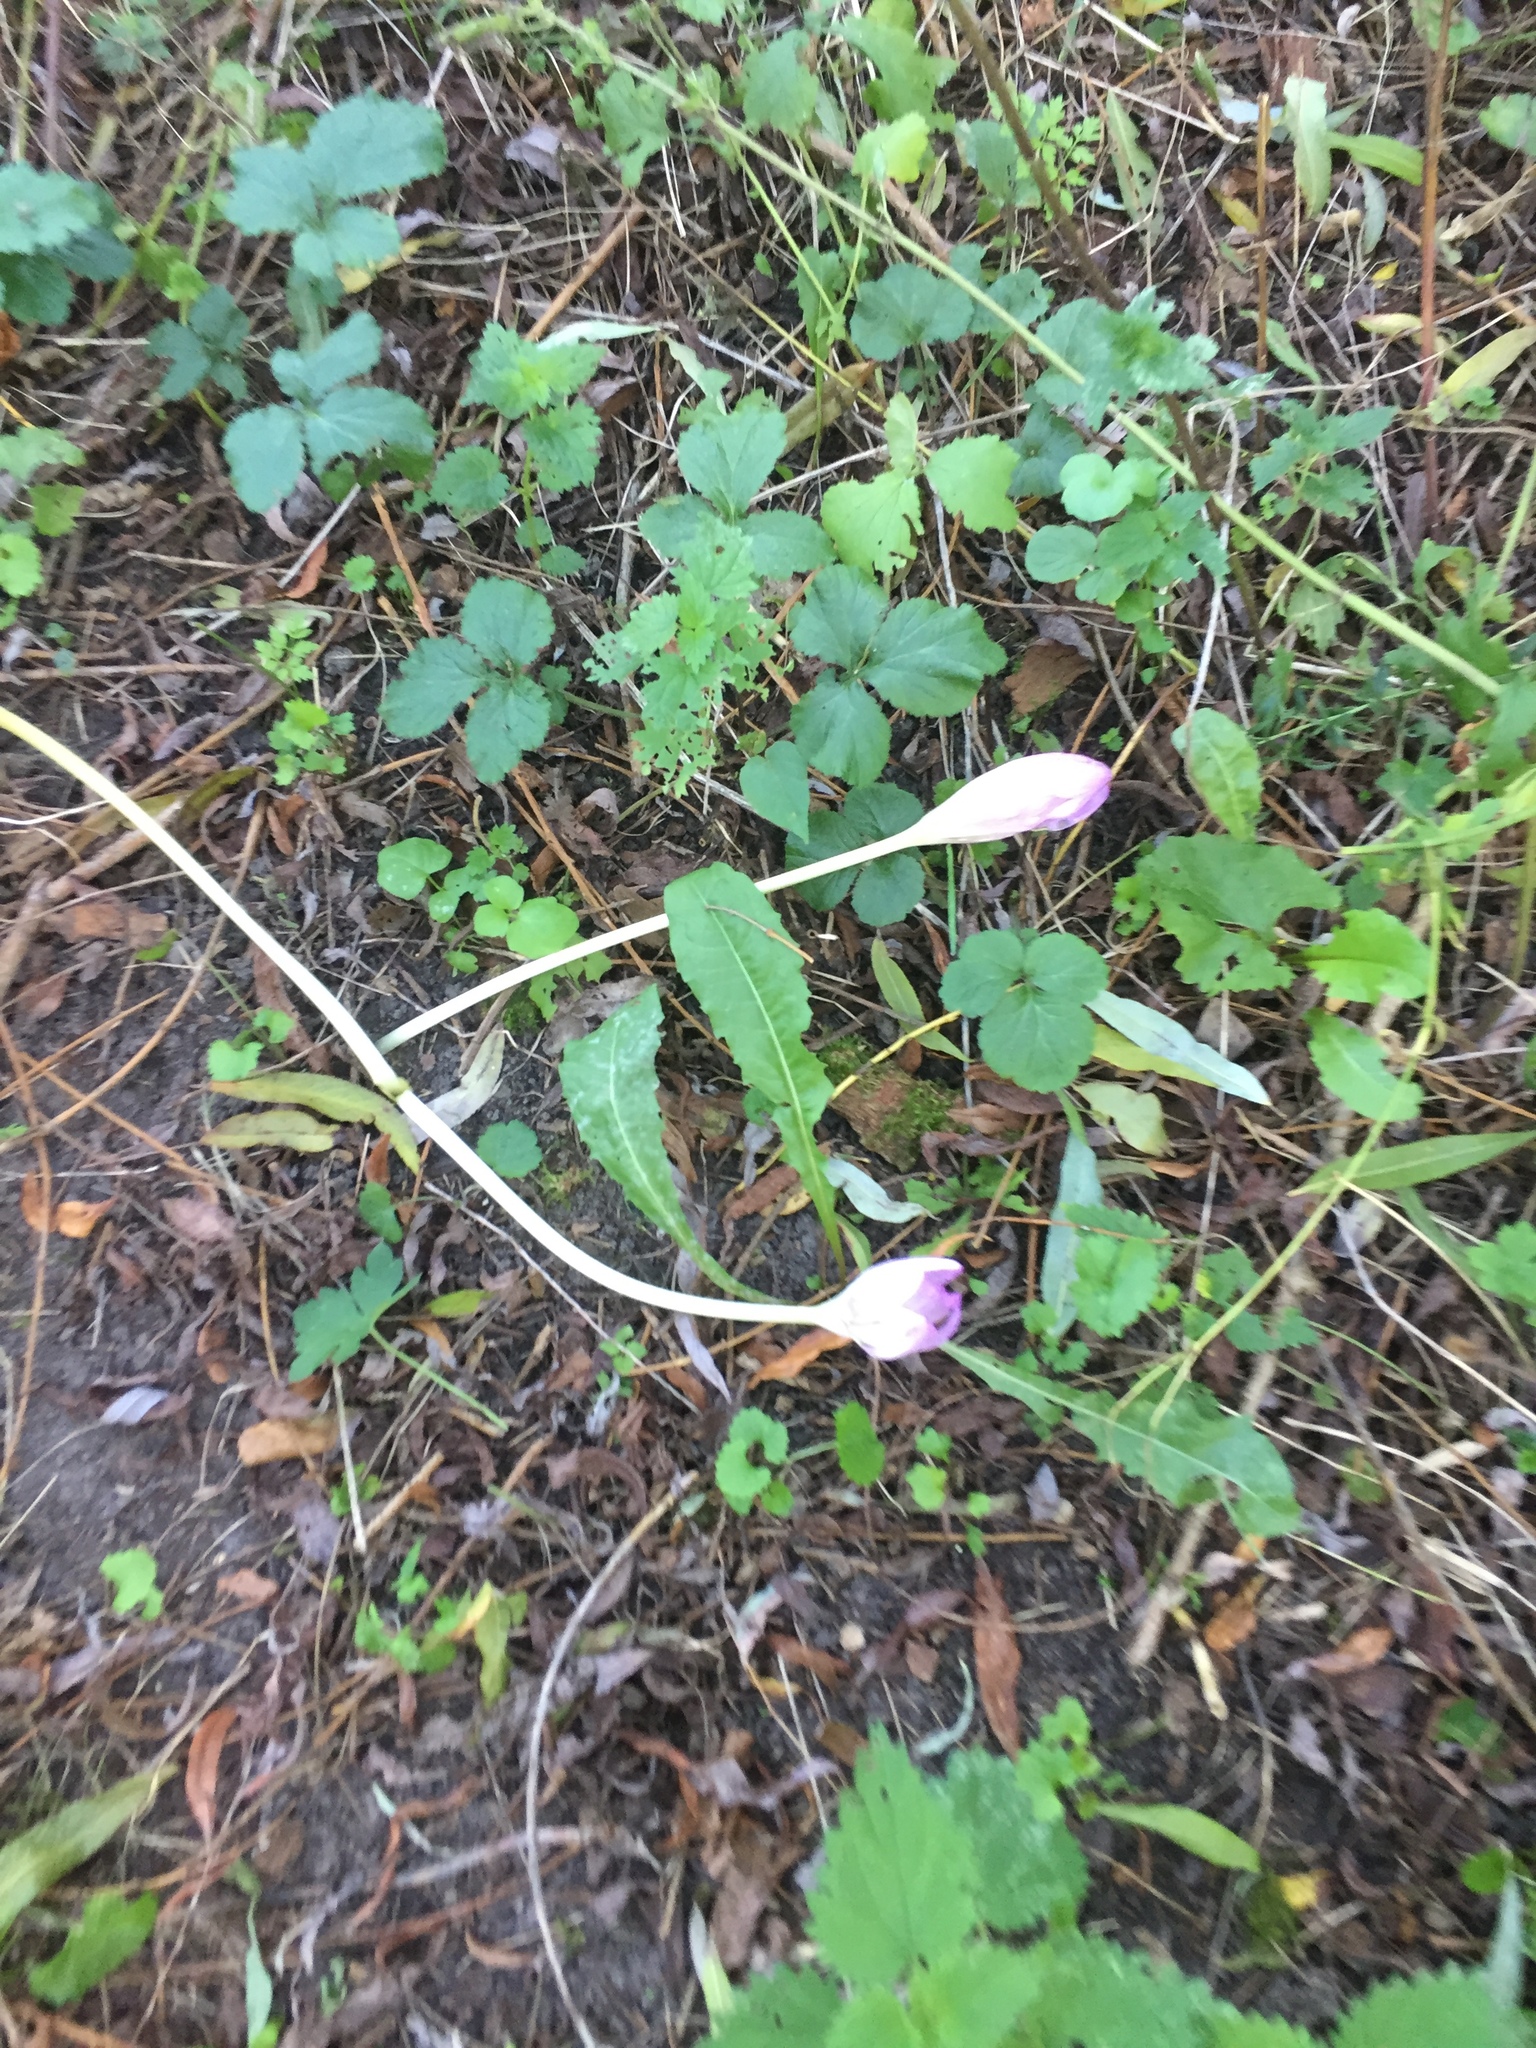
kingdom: Plantae
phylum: Tracheophyta
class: Liliopsida
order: Liliales
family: Colchicaceae
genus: Colchicum
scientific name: Colchicum autumnale
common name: Autumn crocus
